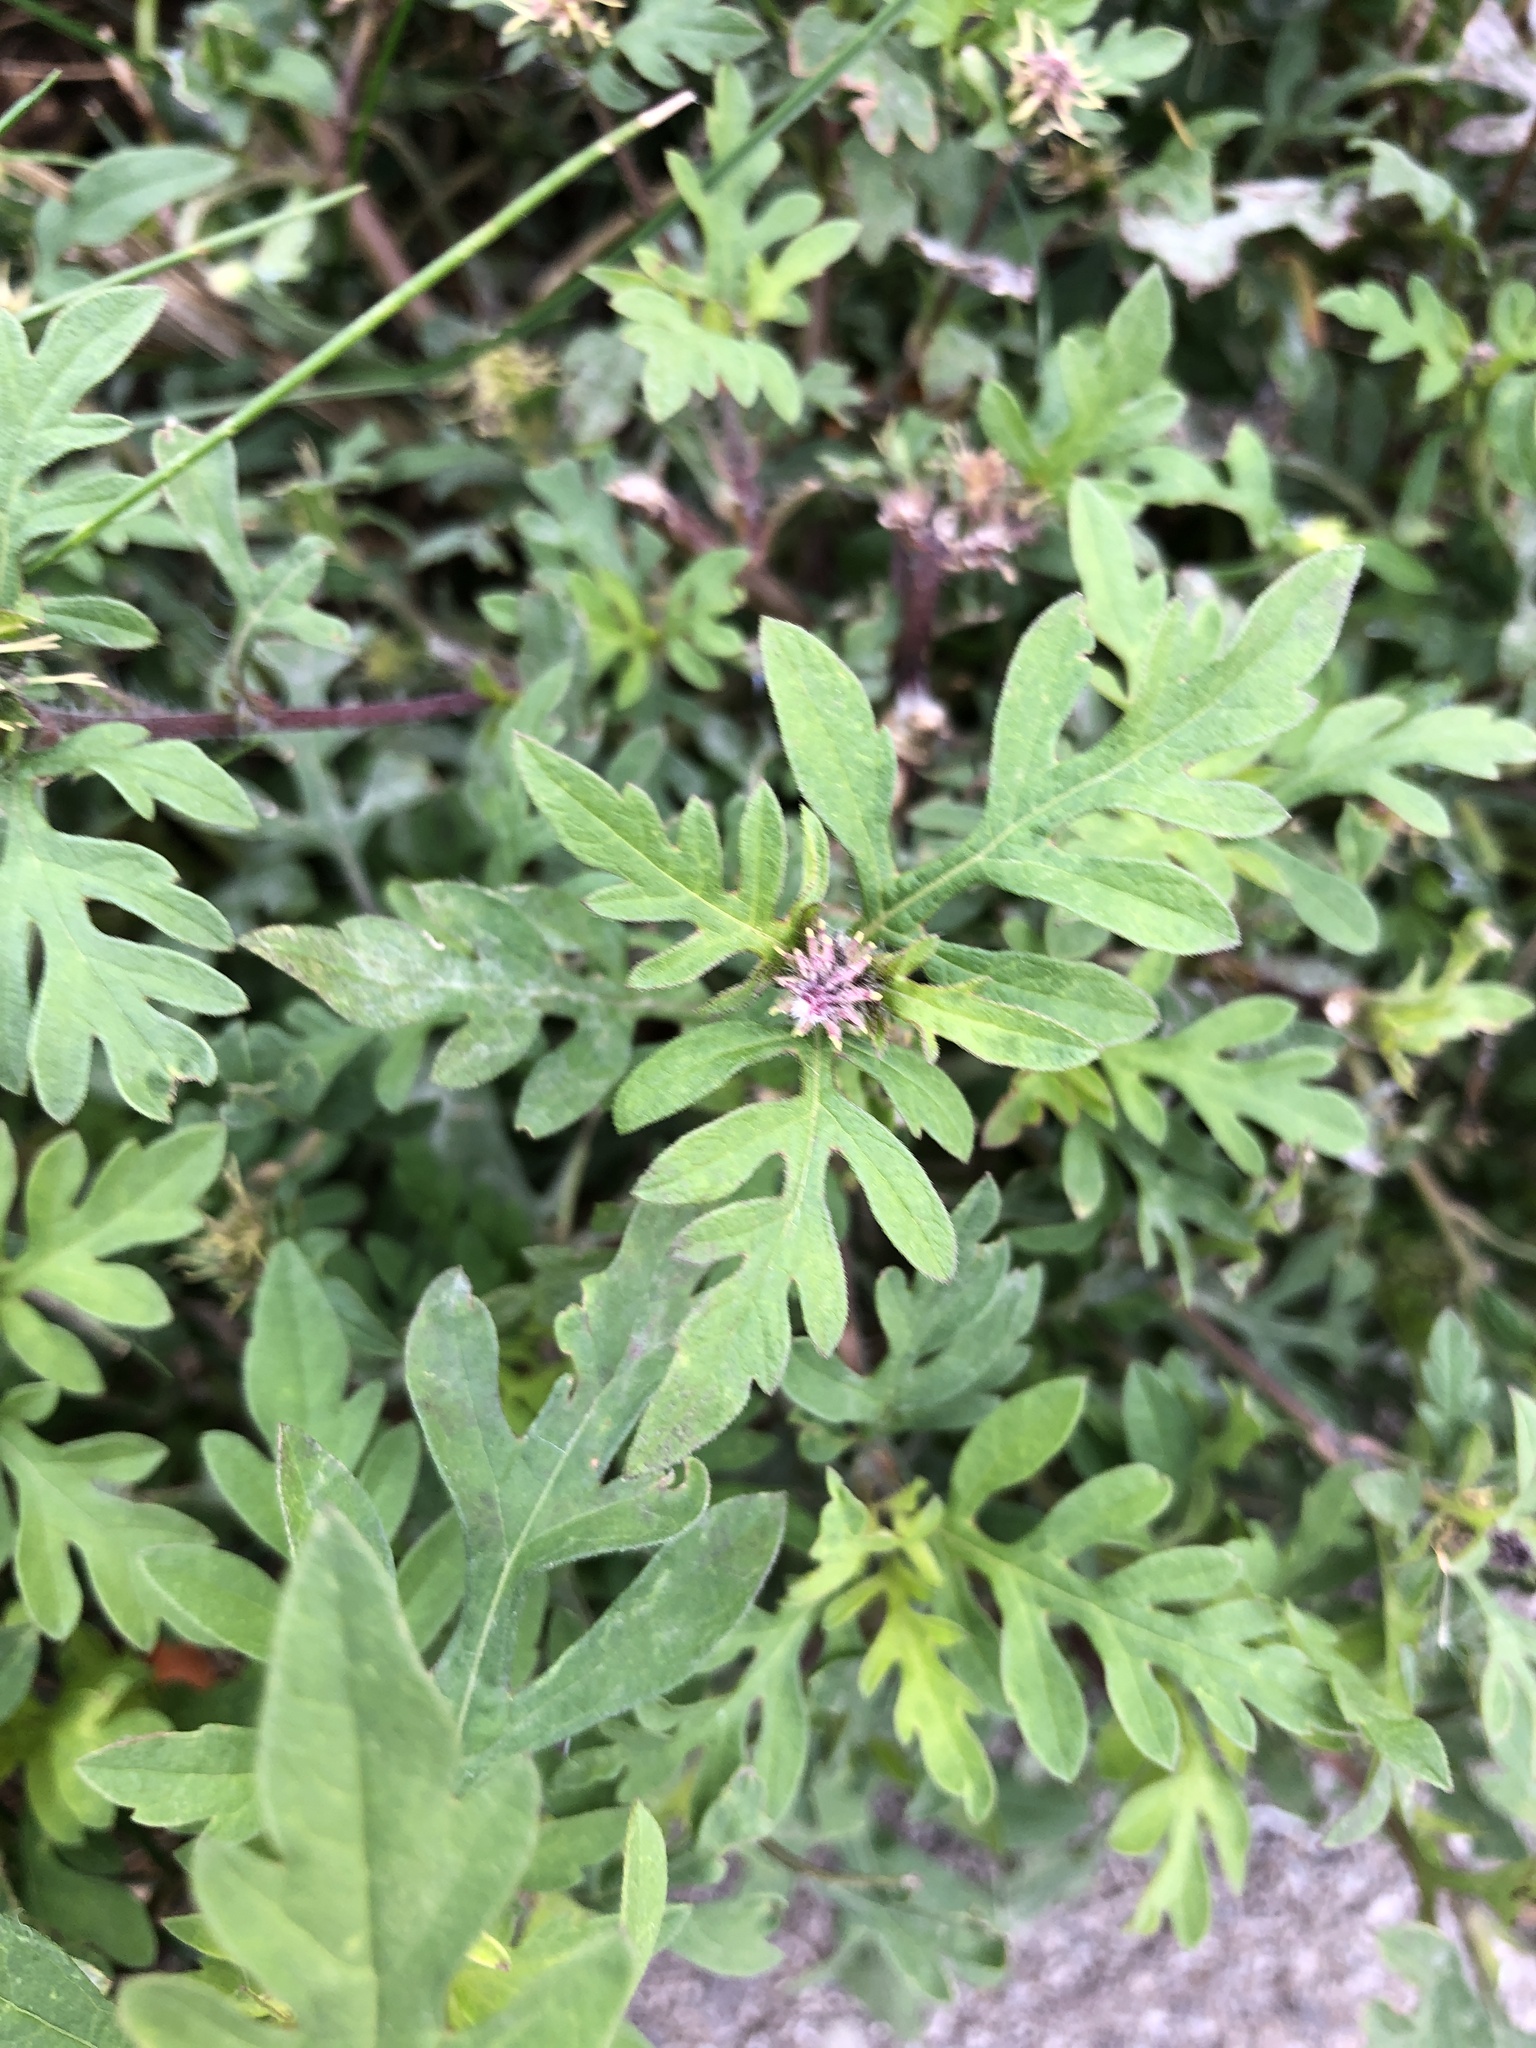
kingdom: Plantae
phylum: Tracheophyta
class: Magnoliopsida
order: Asterales
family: Asteraceae
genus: Ambrosia
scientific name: Ambrosia artemisiifolia
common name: Annual ragweed
